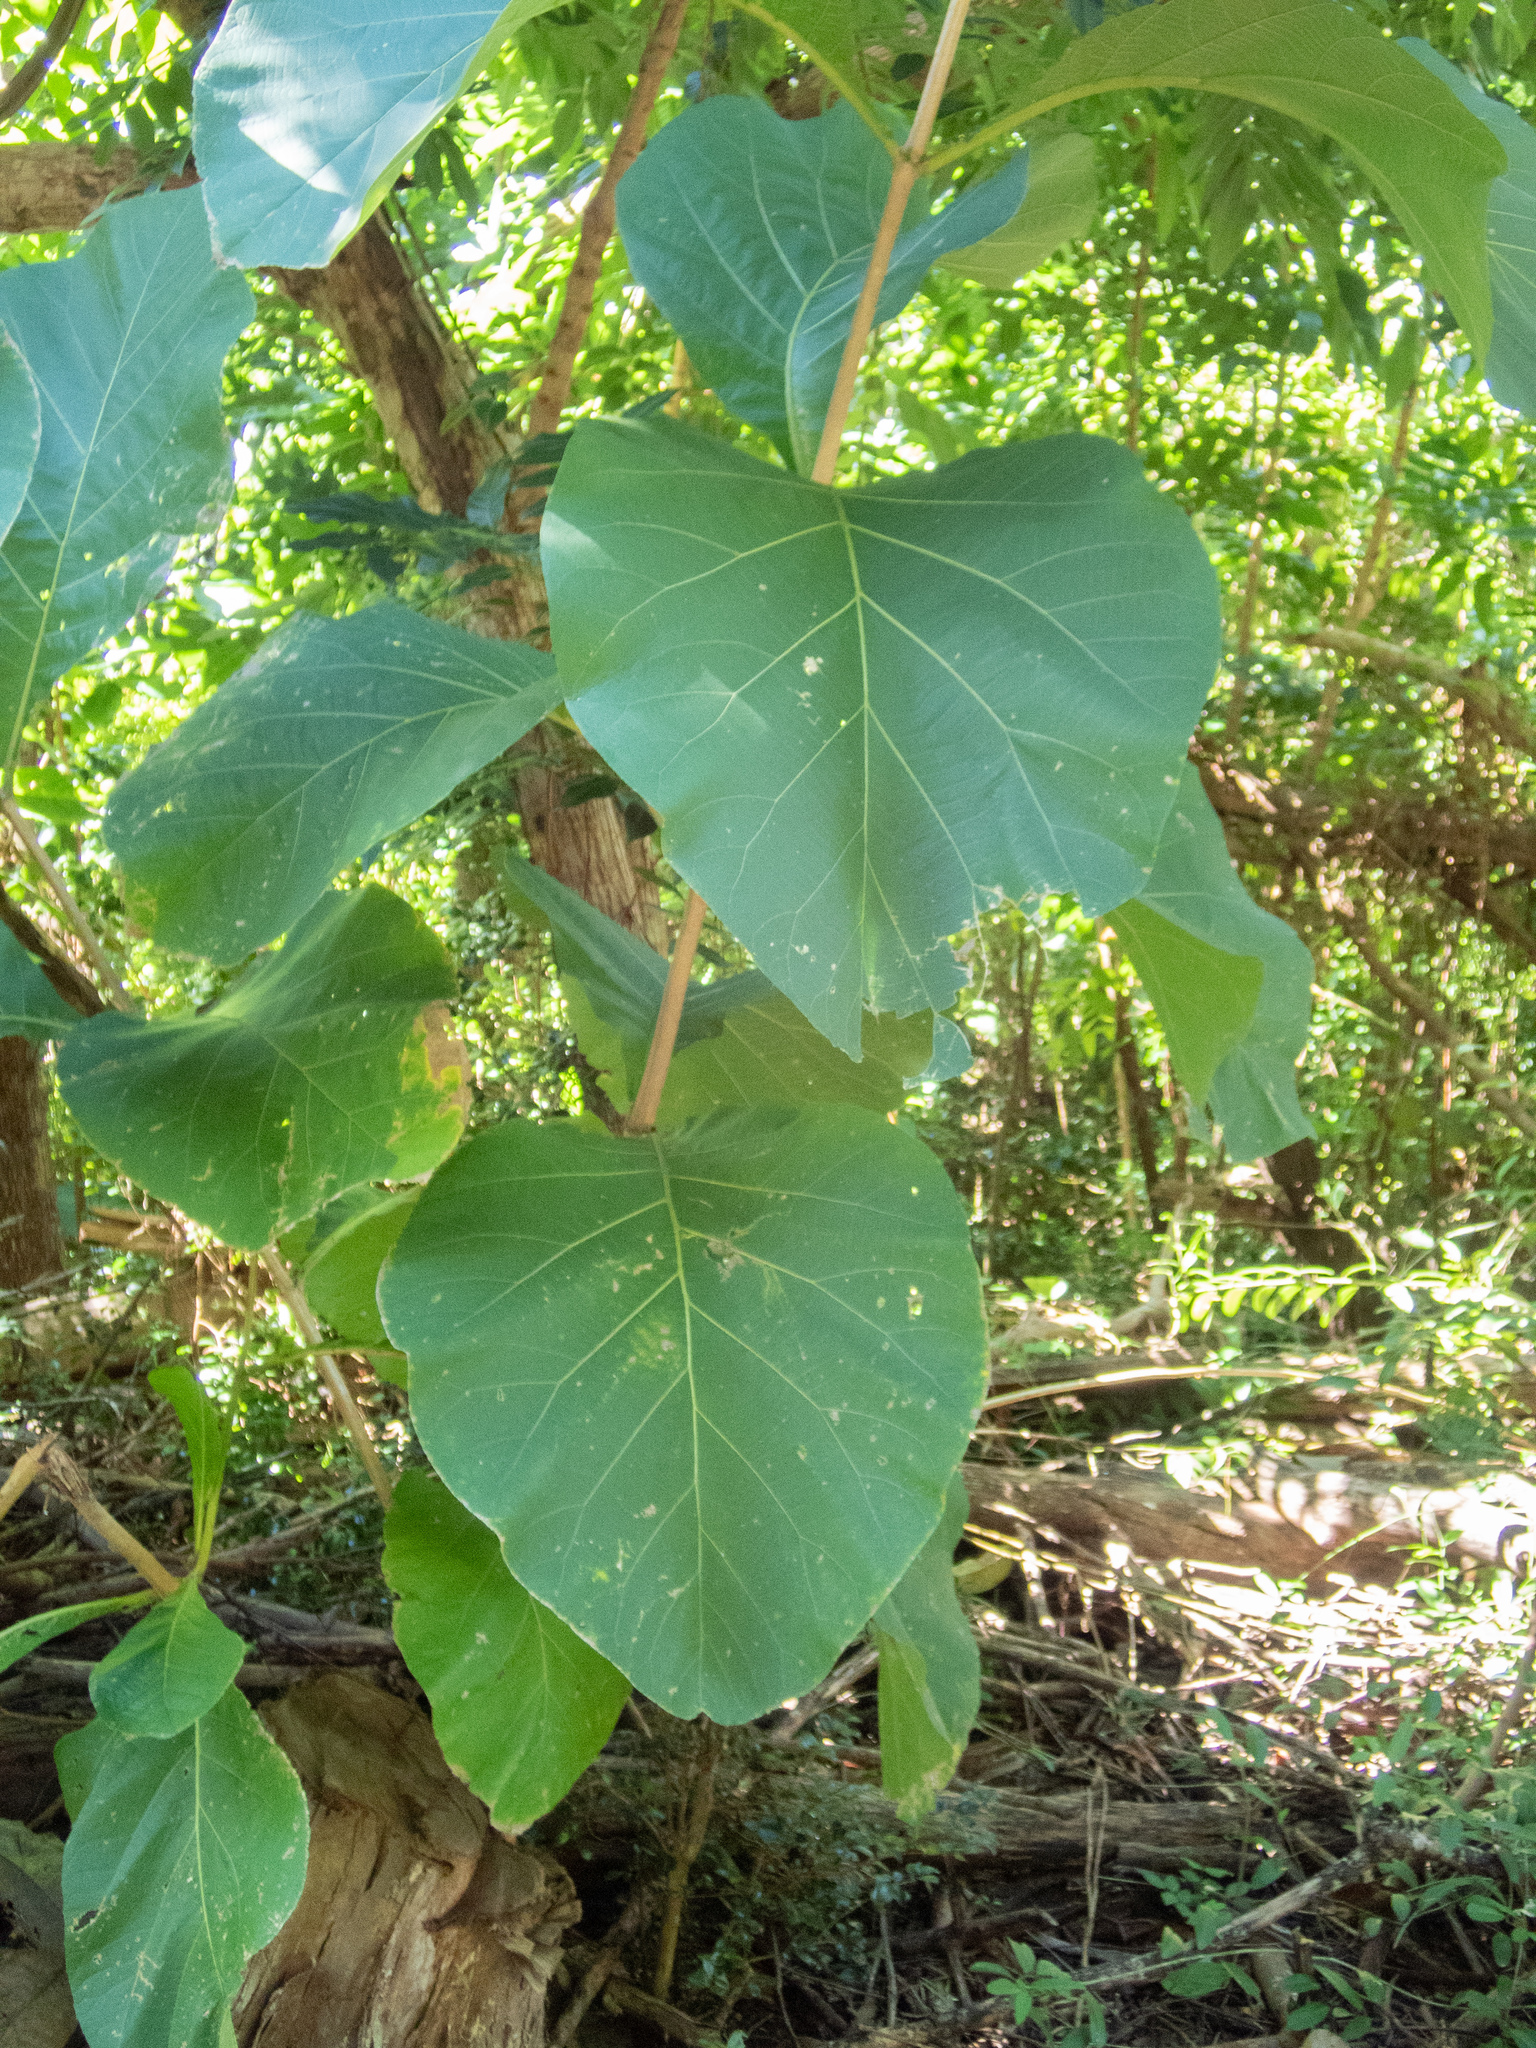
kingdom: Plantae
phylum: Tracheophyta
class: Magnoliopsida
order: Lamiales
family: Lamiaceae
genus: Tectona
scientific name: Tectona grandis
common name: Teak
